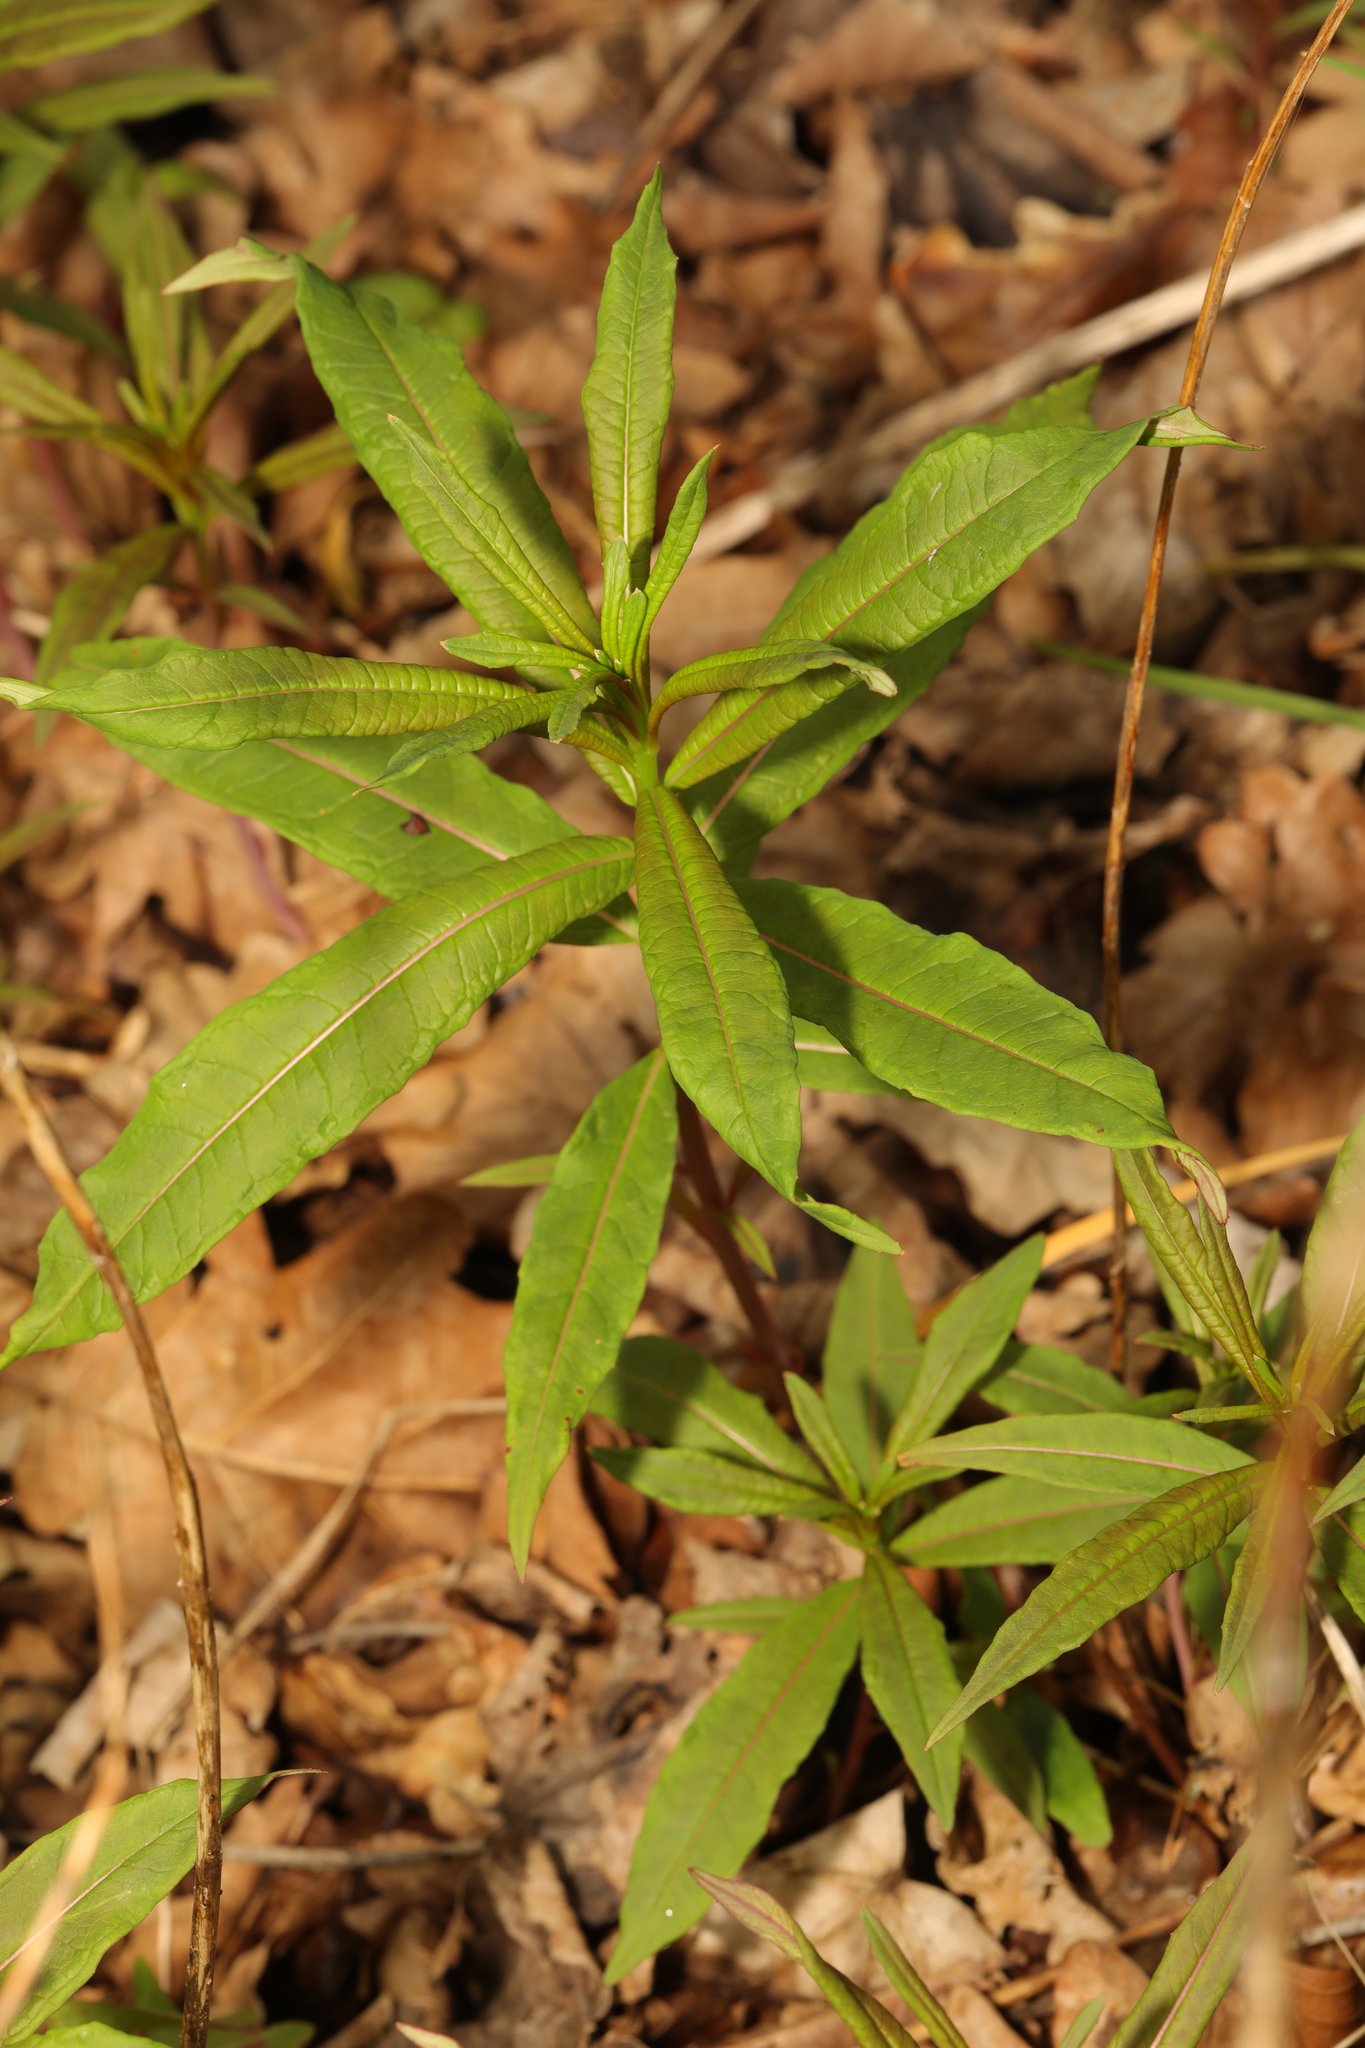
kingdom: Plantae
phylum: Tracheophyta
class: Magnoliopsida
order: Myrtales
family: Onagraceae
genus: Chamaenerion
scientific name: Chamaenerion angustifolium
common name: Fireweed
